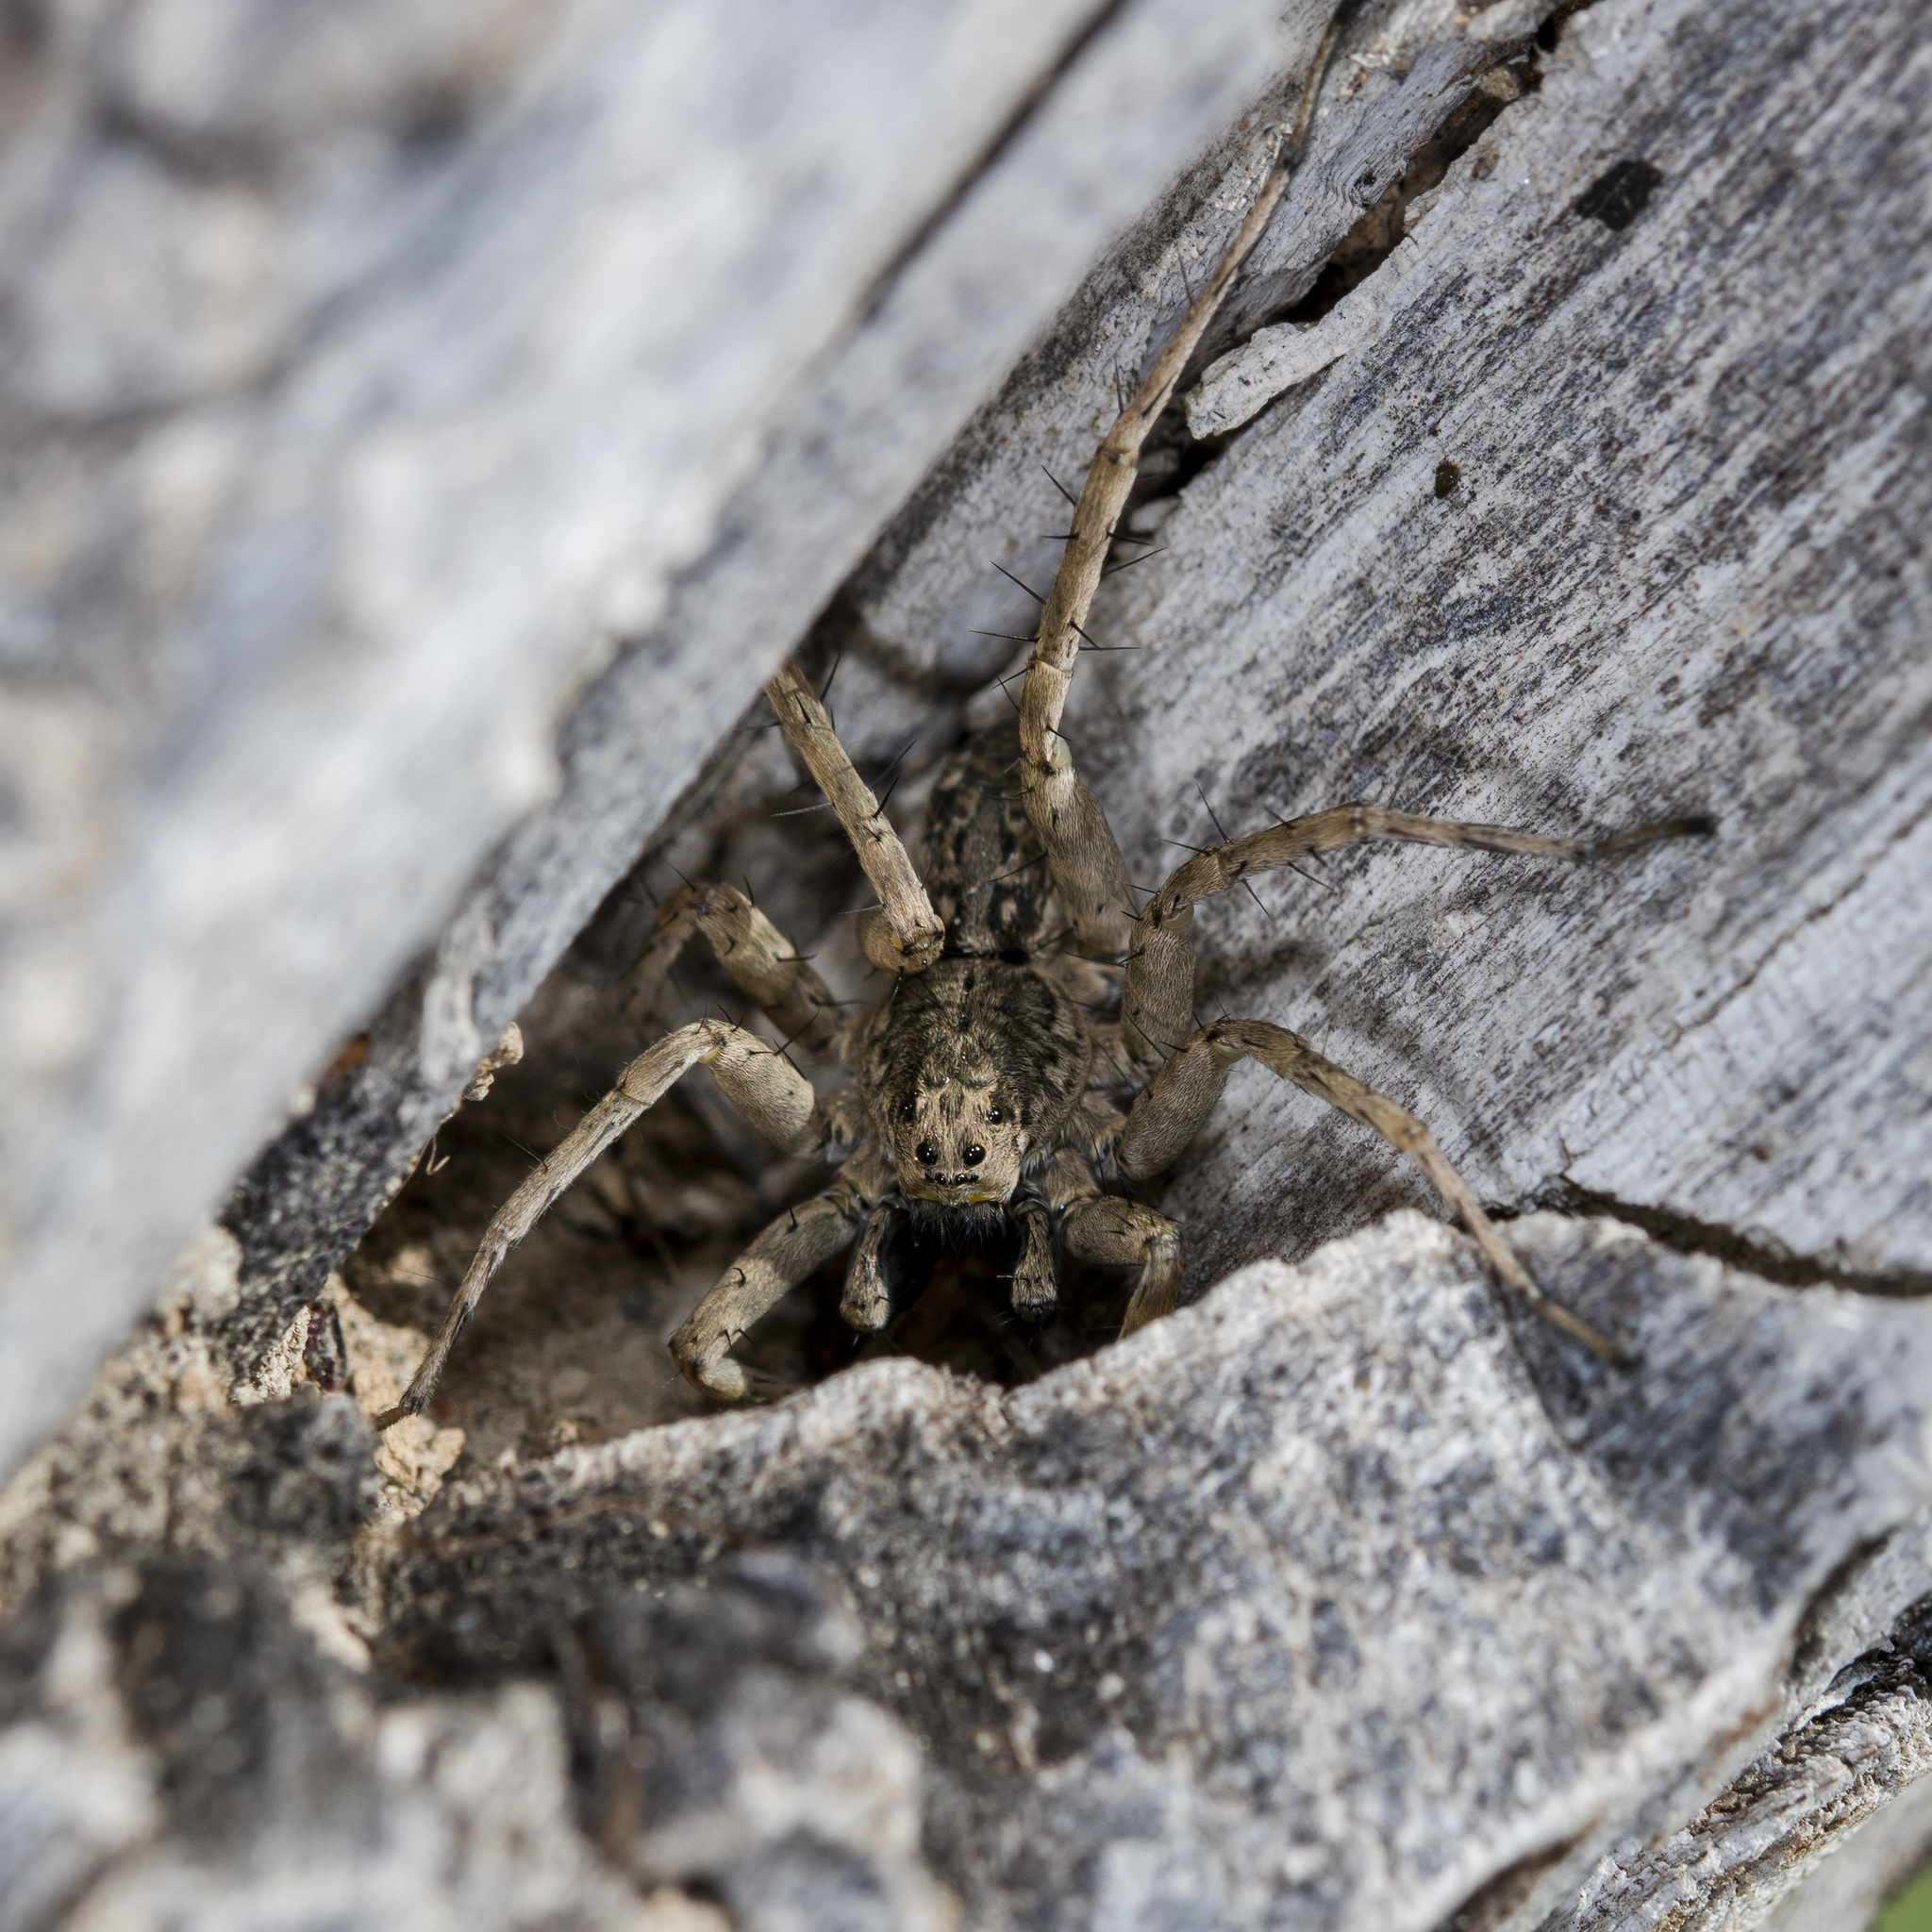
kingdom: Animalia
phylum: Arthropoda
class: Arachnida
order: Araneae
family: Lycosidae
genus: Pardosa
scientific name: Pardosa nebulosa
